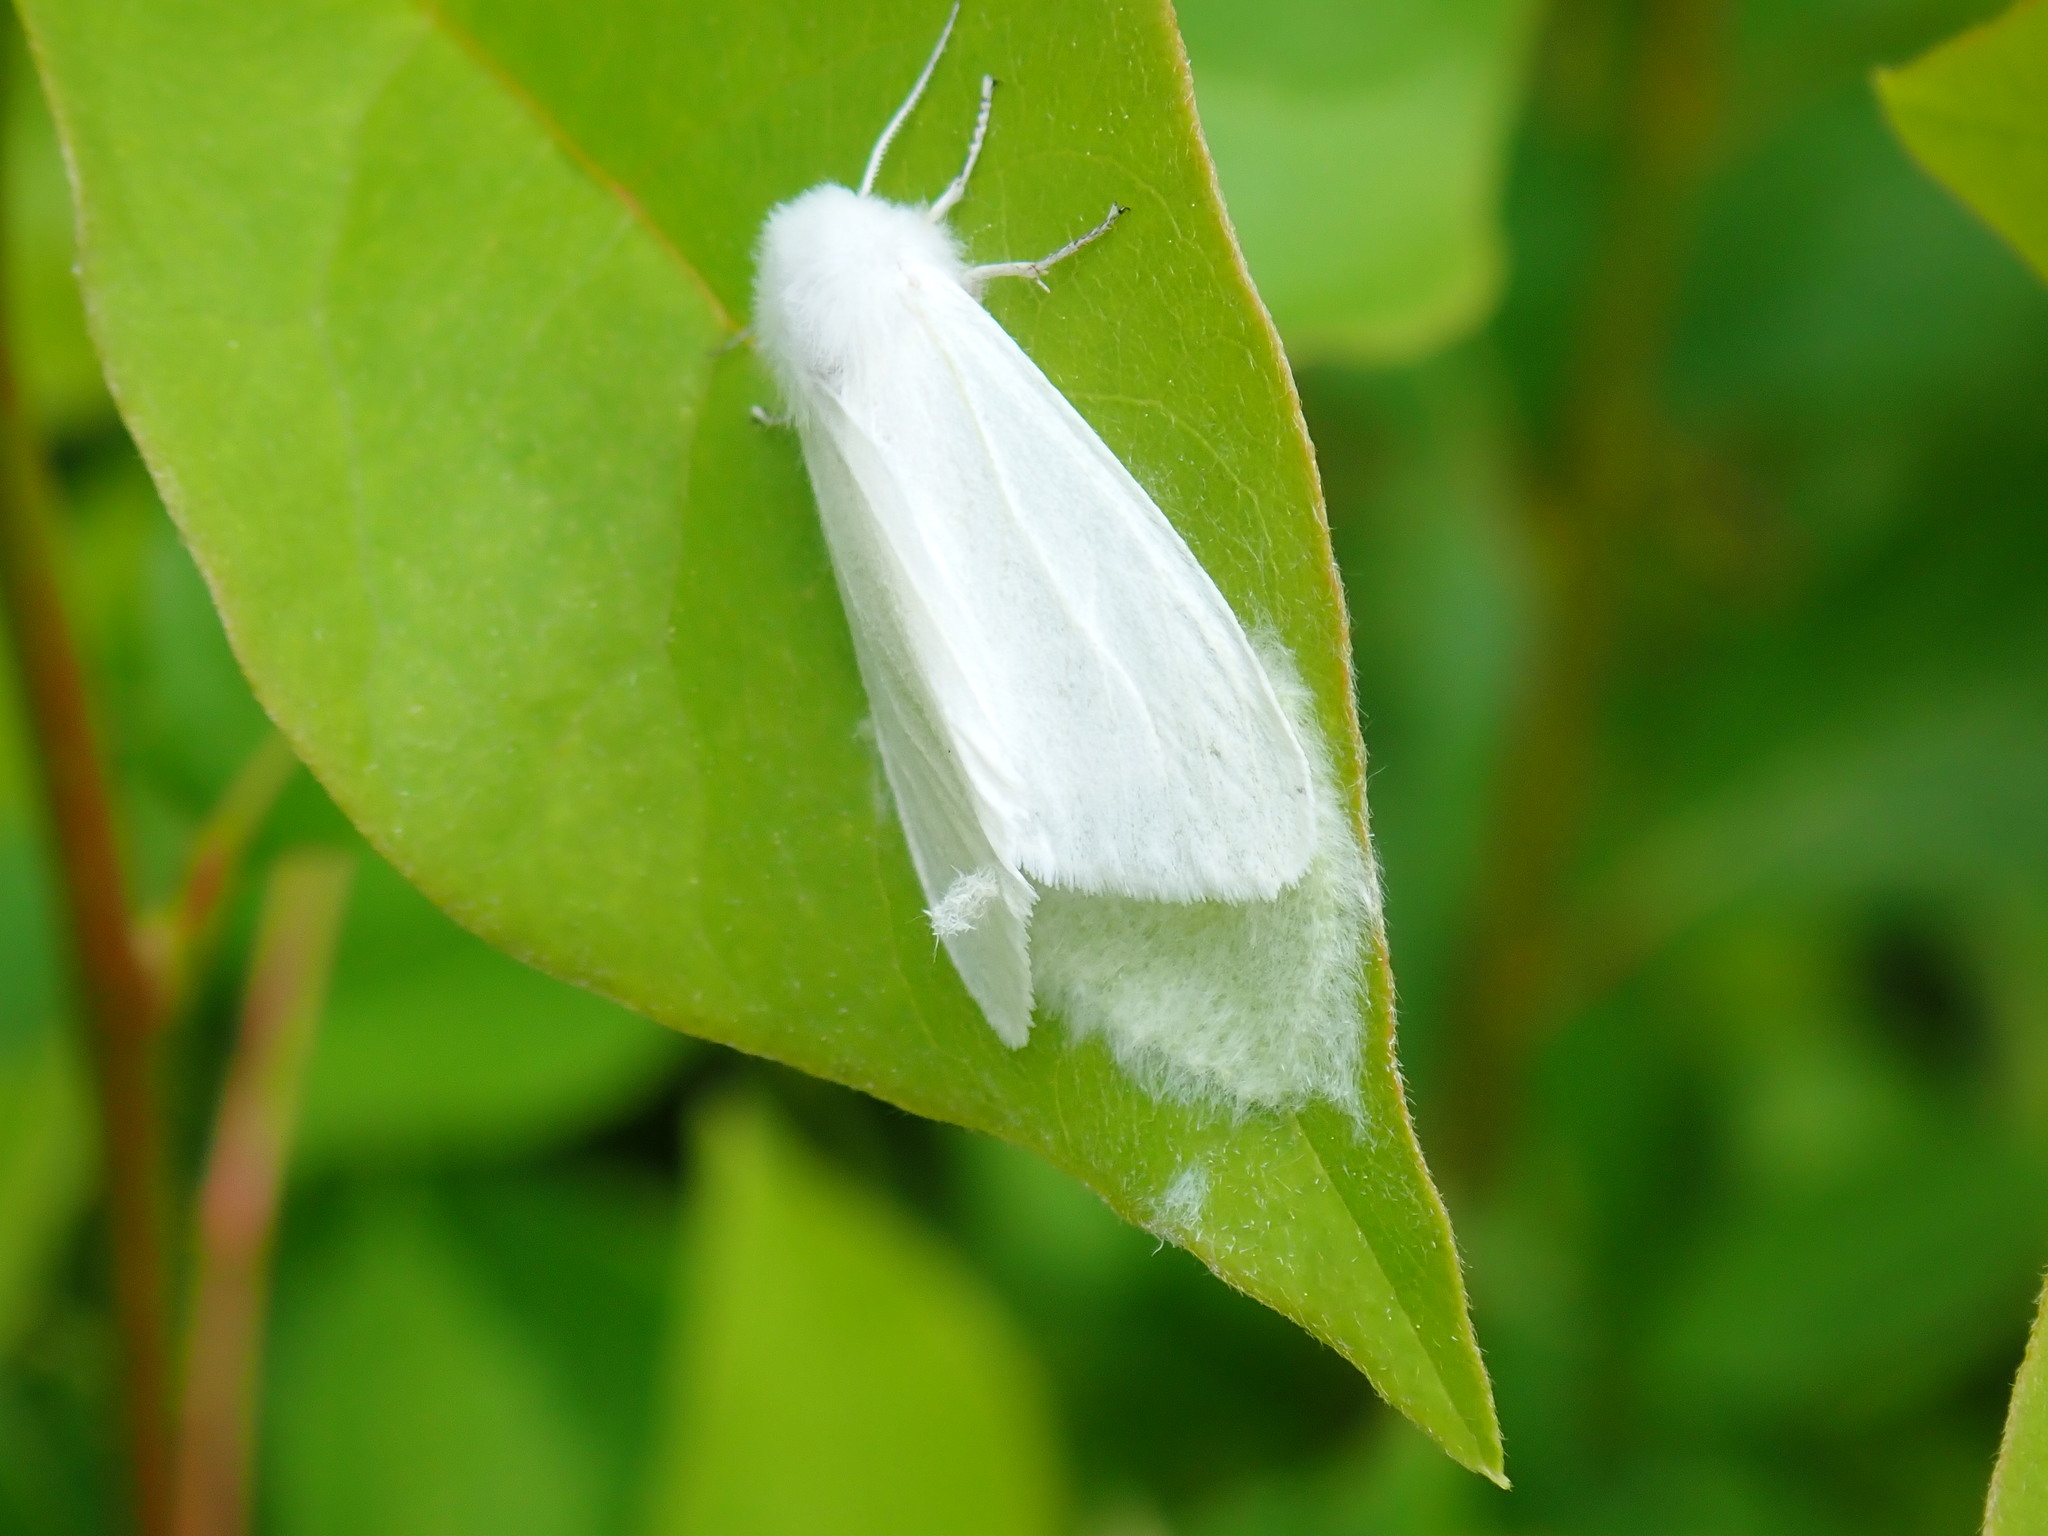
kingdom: Animalia
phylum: Arthropoda
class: Insecta
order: Lepidoptera
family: Erebidae
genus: Hyphantria
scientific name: Hyphantria cunea
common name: American white moth
